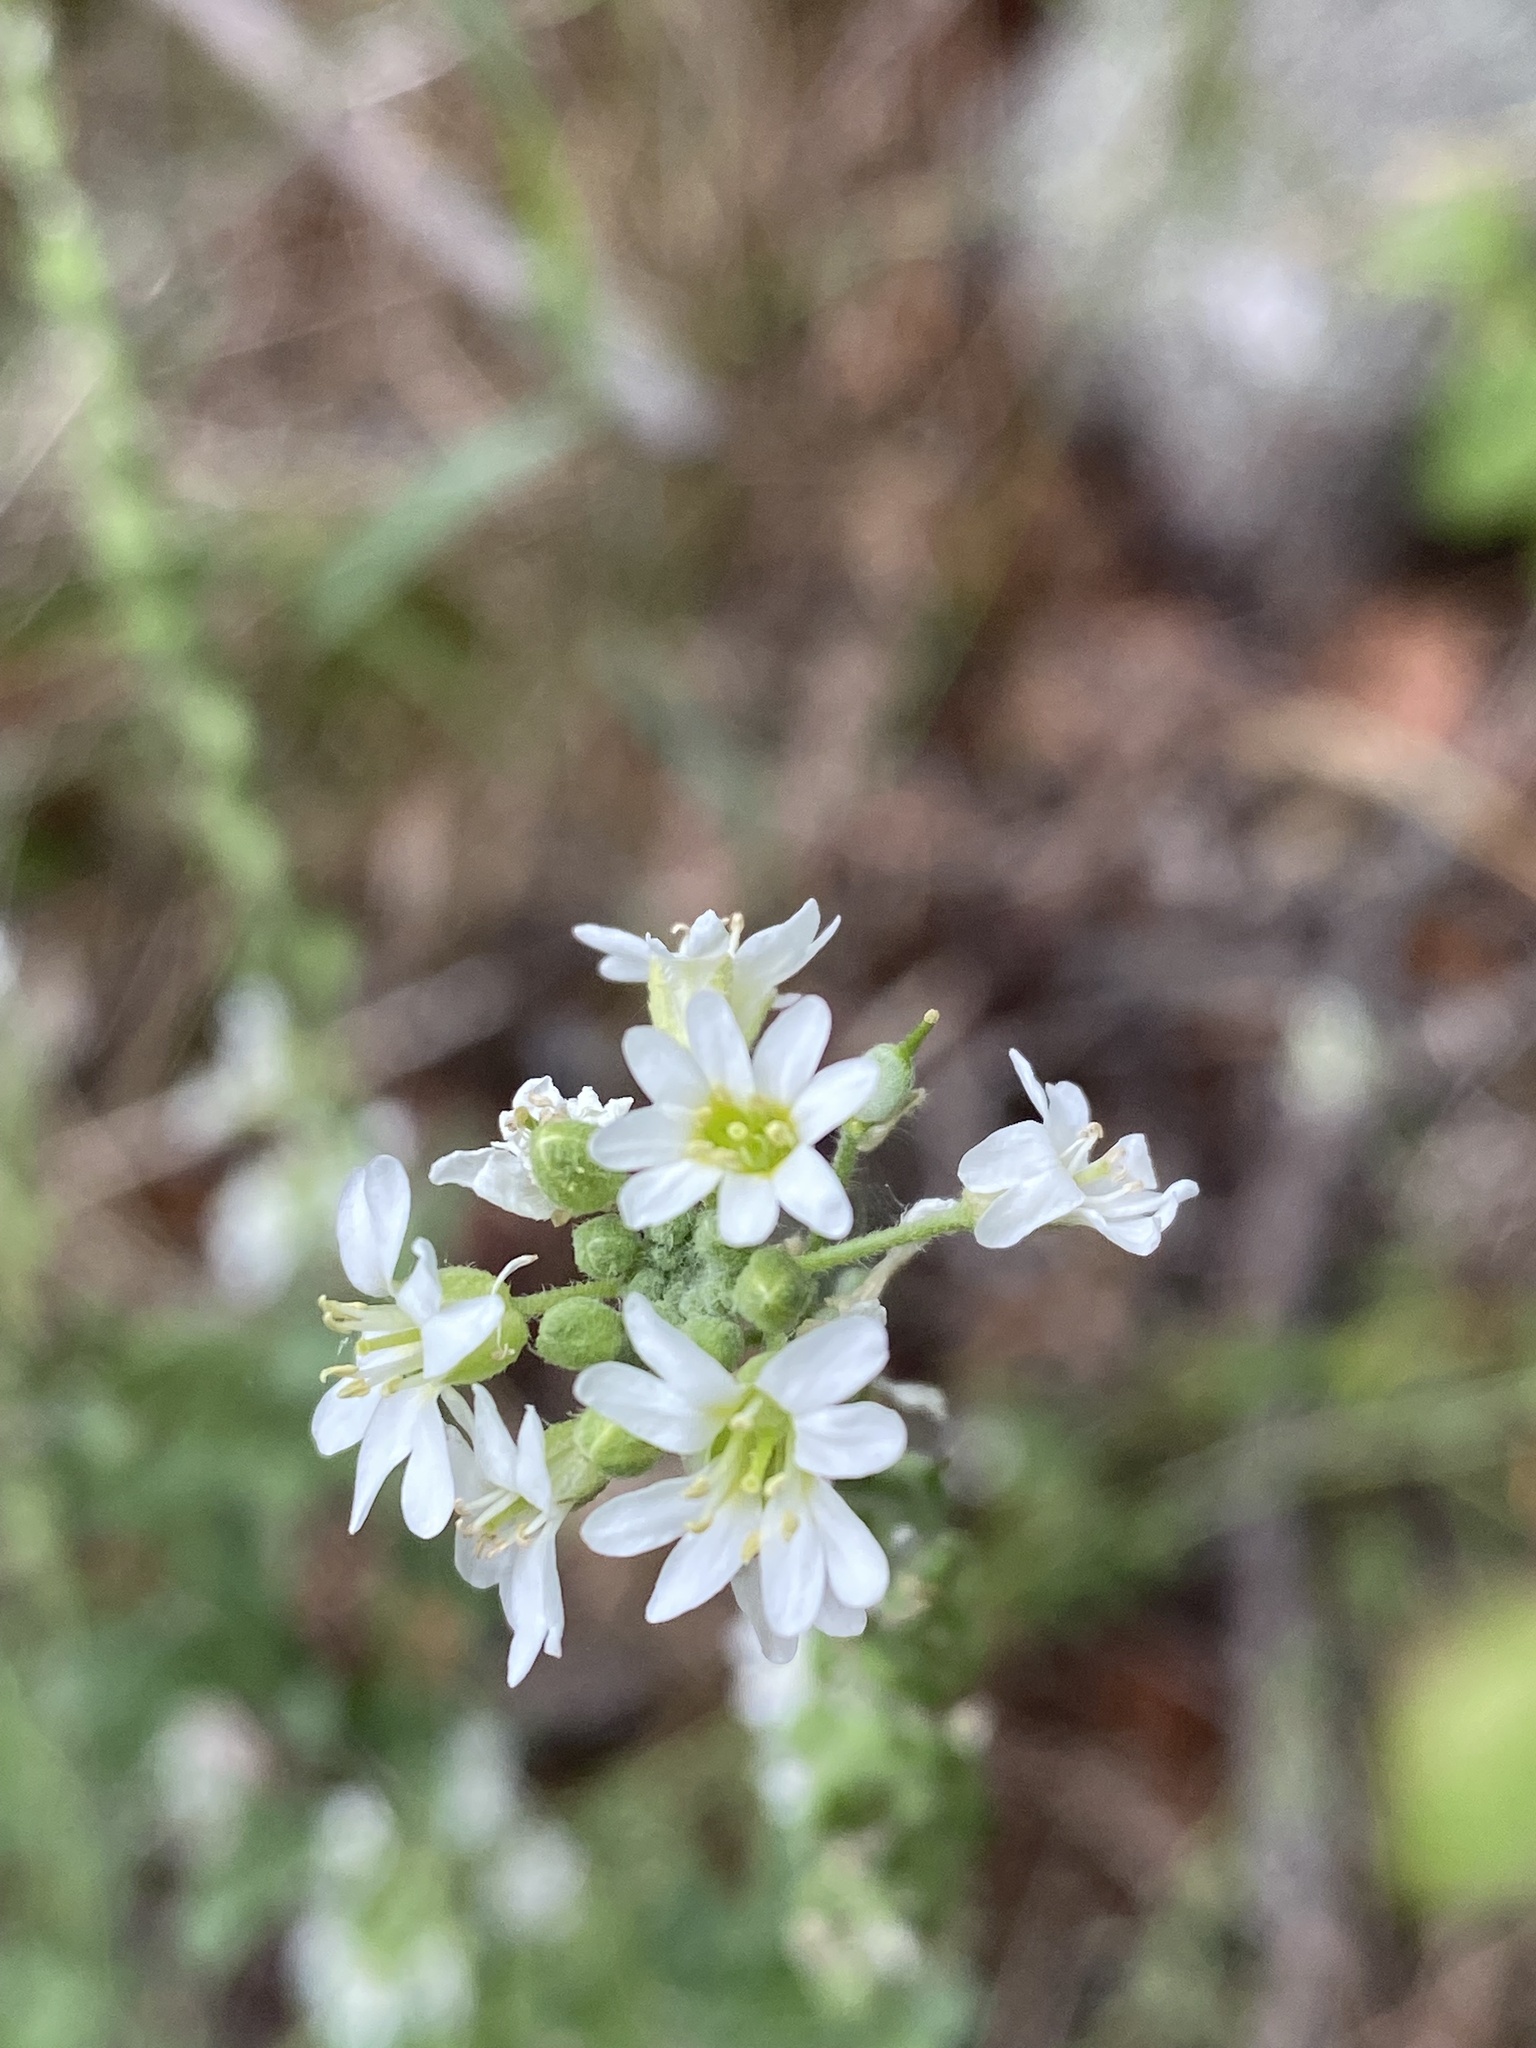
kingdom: Plantae
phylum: Tracheophyta
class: Magnoliopsida
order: Brassicales
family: Brassicaceae
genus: Berteroa
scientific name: Berteroa incana
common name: Hoary alison
